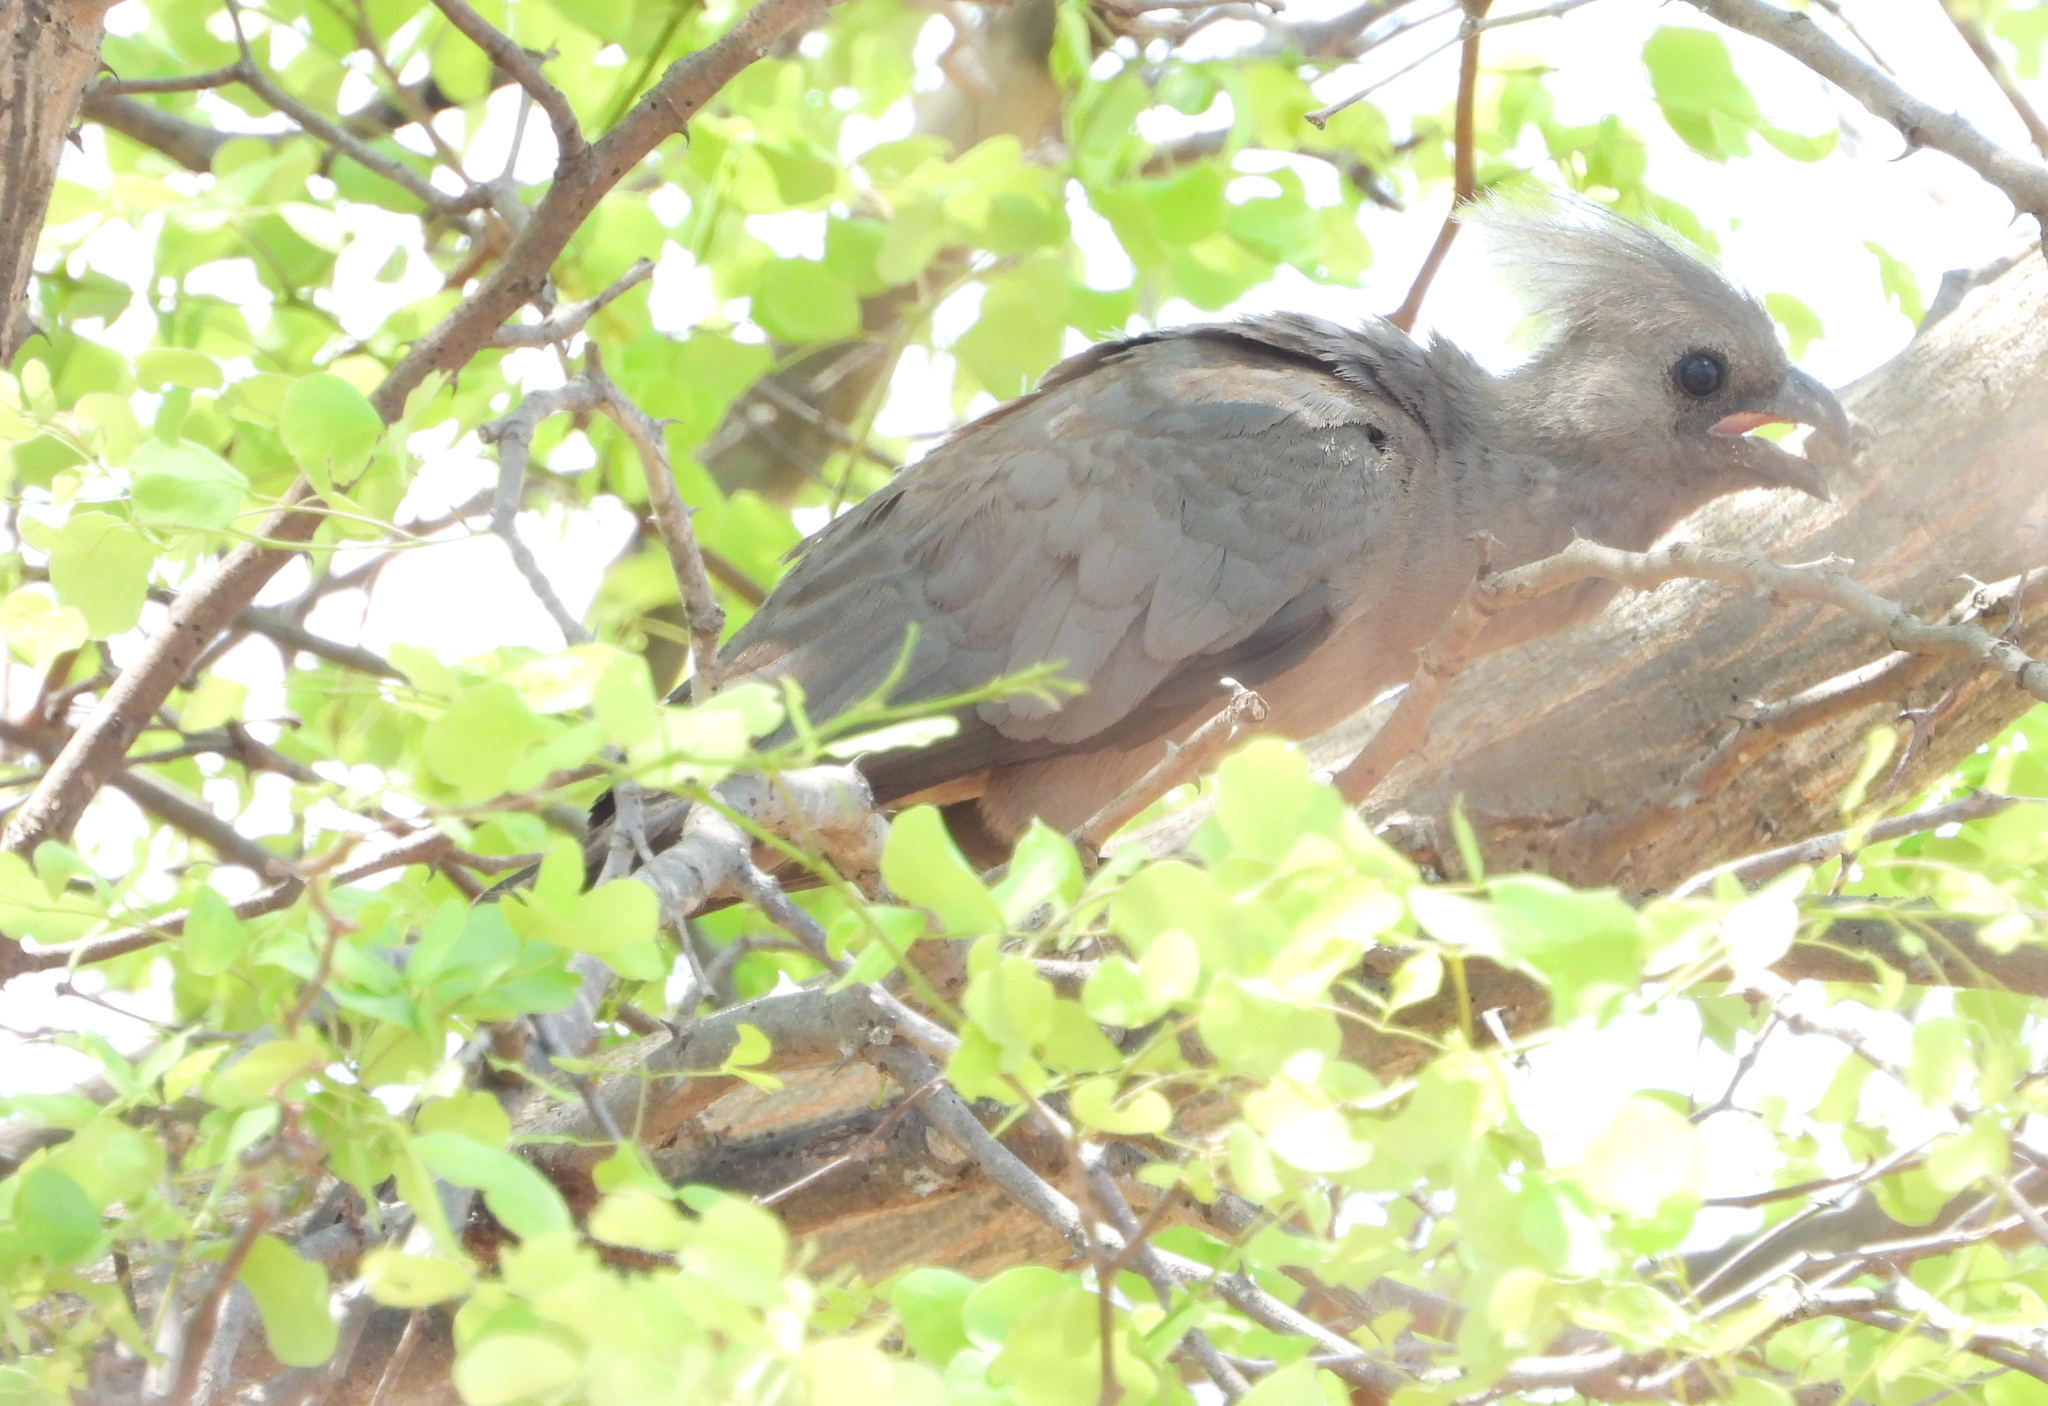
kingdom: Animalia
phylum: Chordata
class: Aves
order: Musophagiformes
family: Musophagidae
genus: Corythaixoides
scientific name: Corythaixoides concolor
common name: Grey go-away-bird
